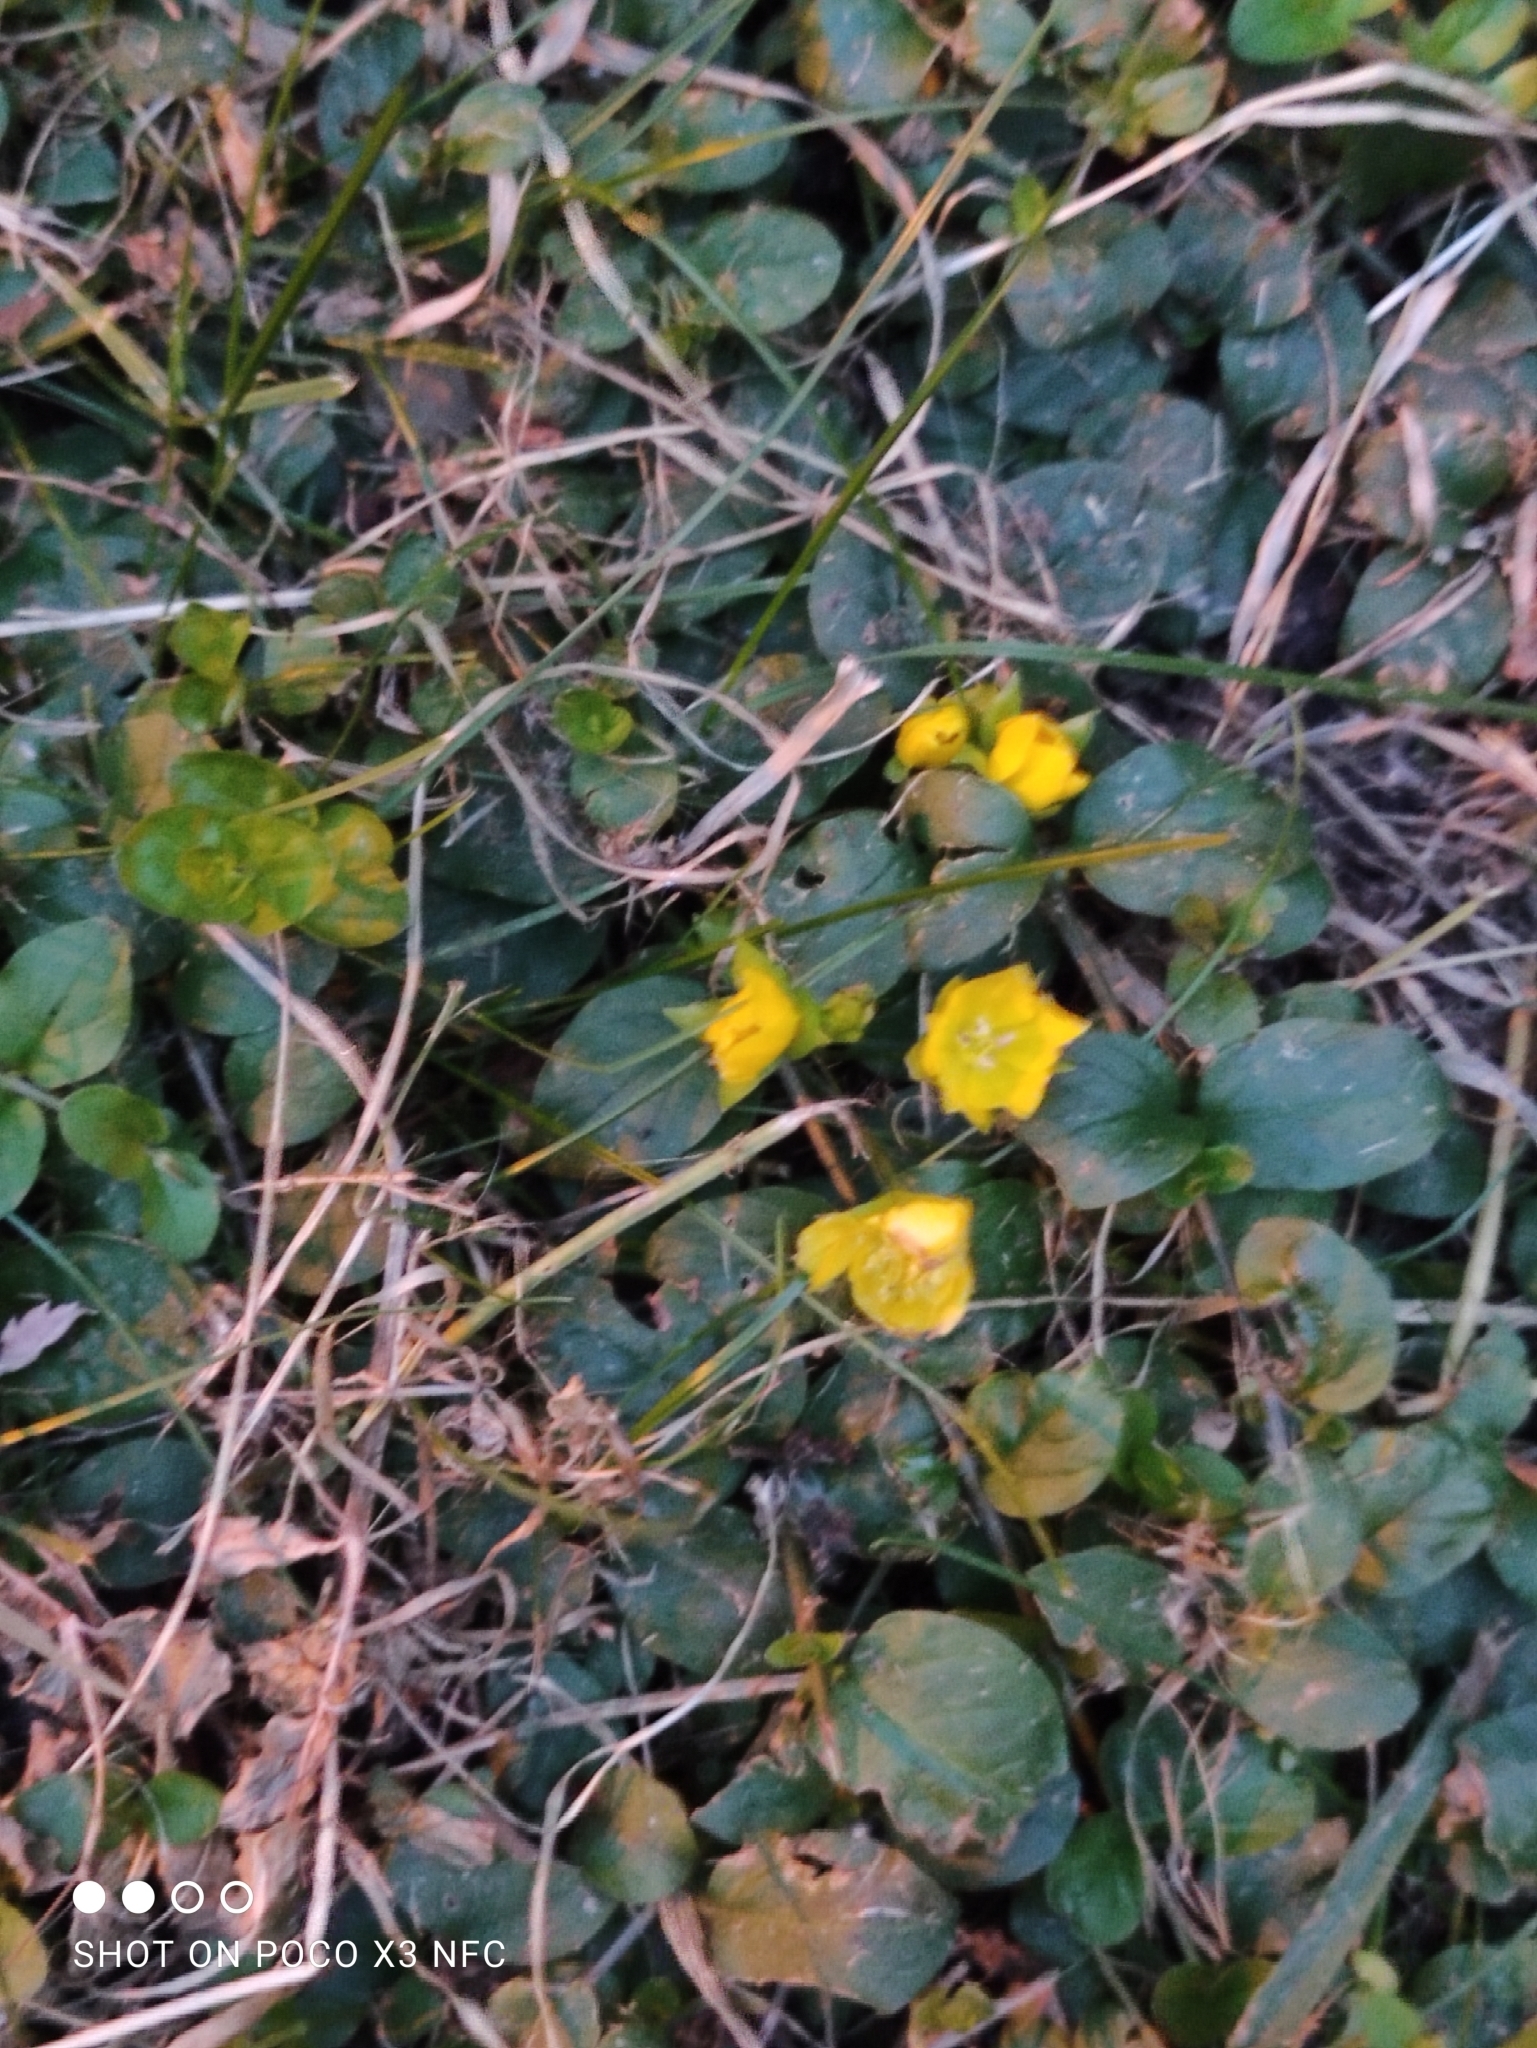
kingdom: Plantae
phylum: Tracheophyta
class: Magnoliopsida
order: Ericales
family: Primulaceae
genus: Lysimachia
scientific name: Lysimachia nummularia
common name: Moneywort
